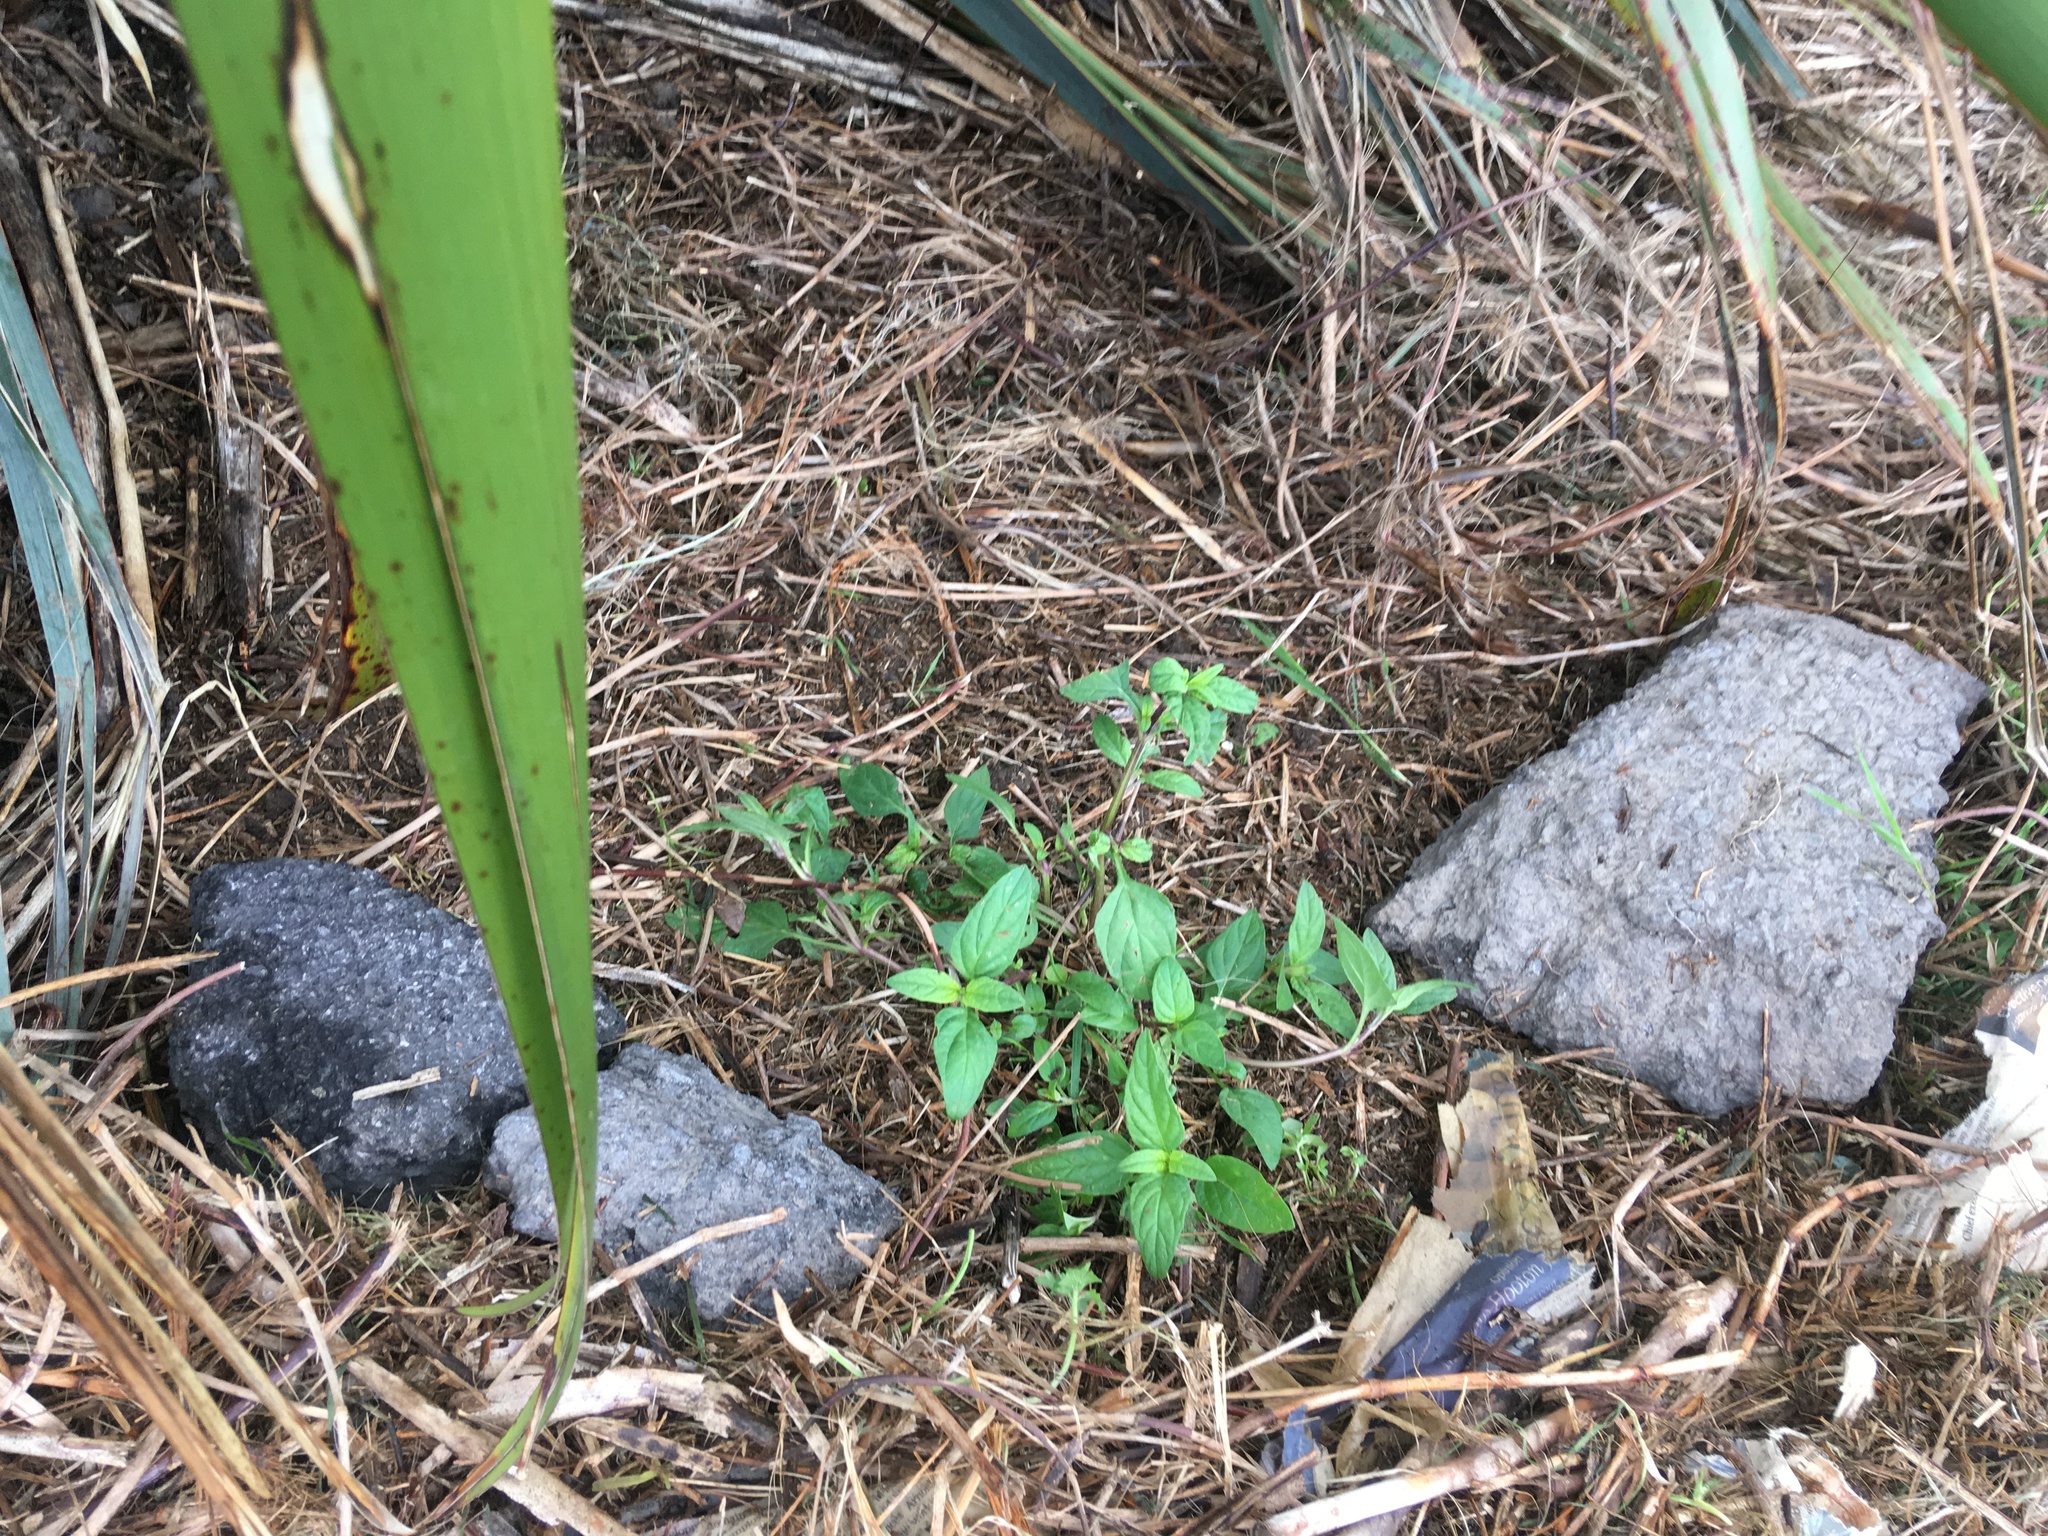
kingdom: Plantae
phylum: Tracheophyta
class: Magnoliopsida
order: Lamiales
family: Lamiaceae
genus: Prunella
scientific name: Prunella vulgaris
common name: Heal-all
